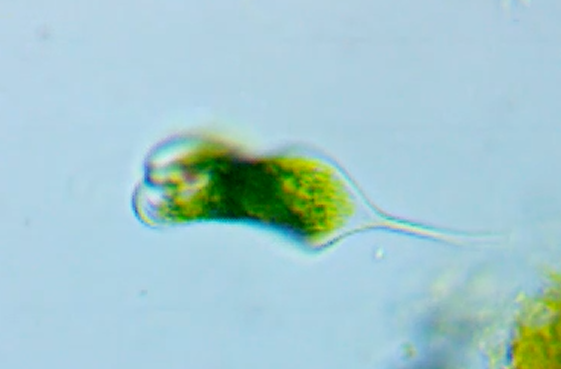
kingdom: Protozoa
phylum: Euglenozoa
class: Euglenoidea
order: Euglenida
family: Phacidae
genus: Phacus
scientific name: Phacus tortus
